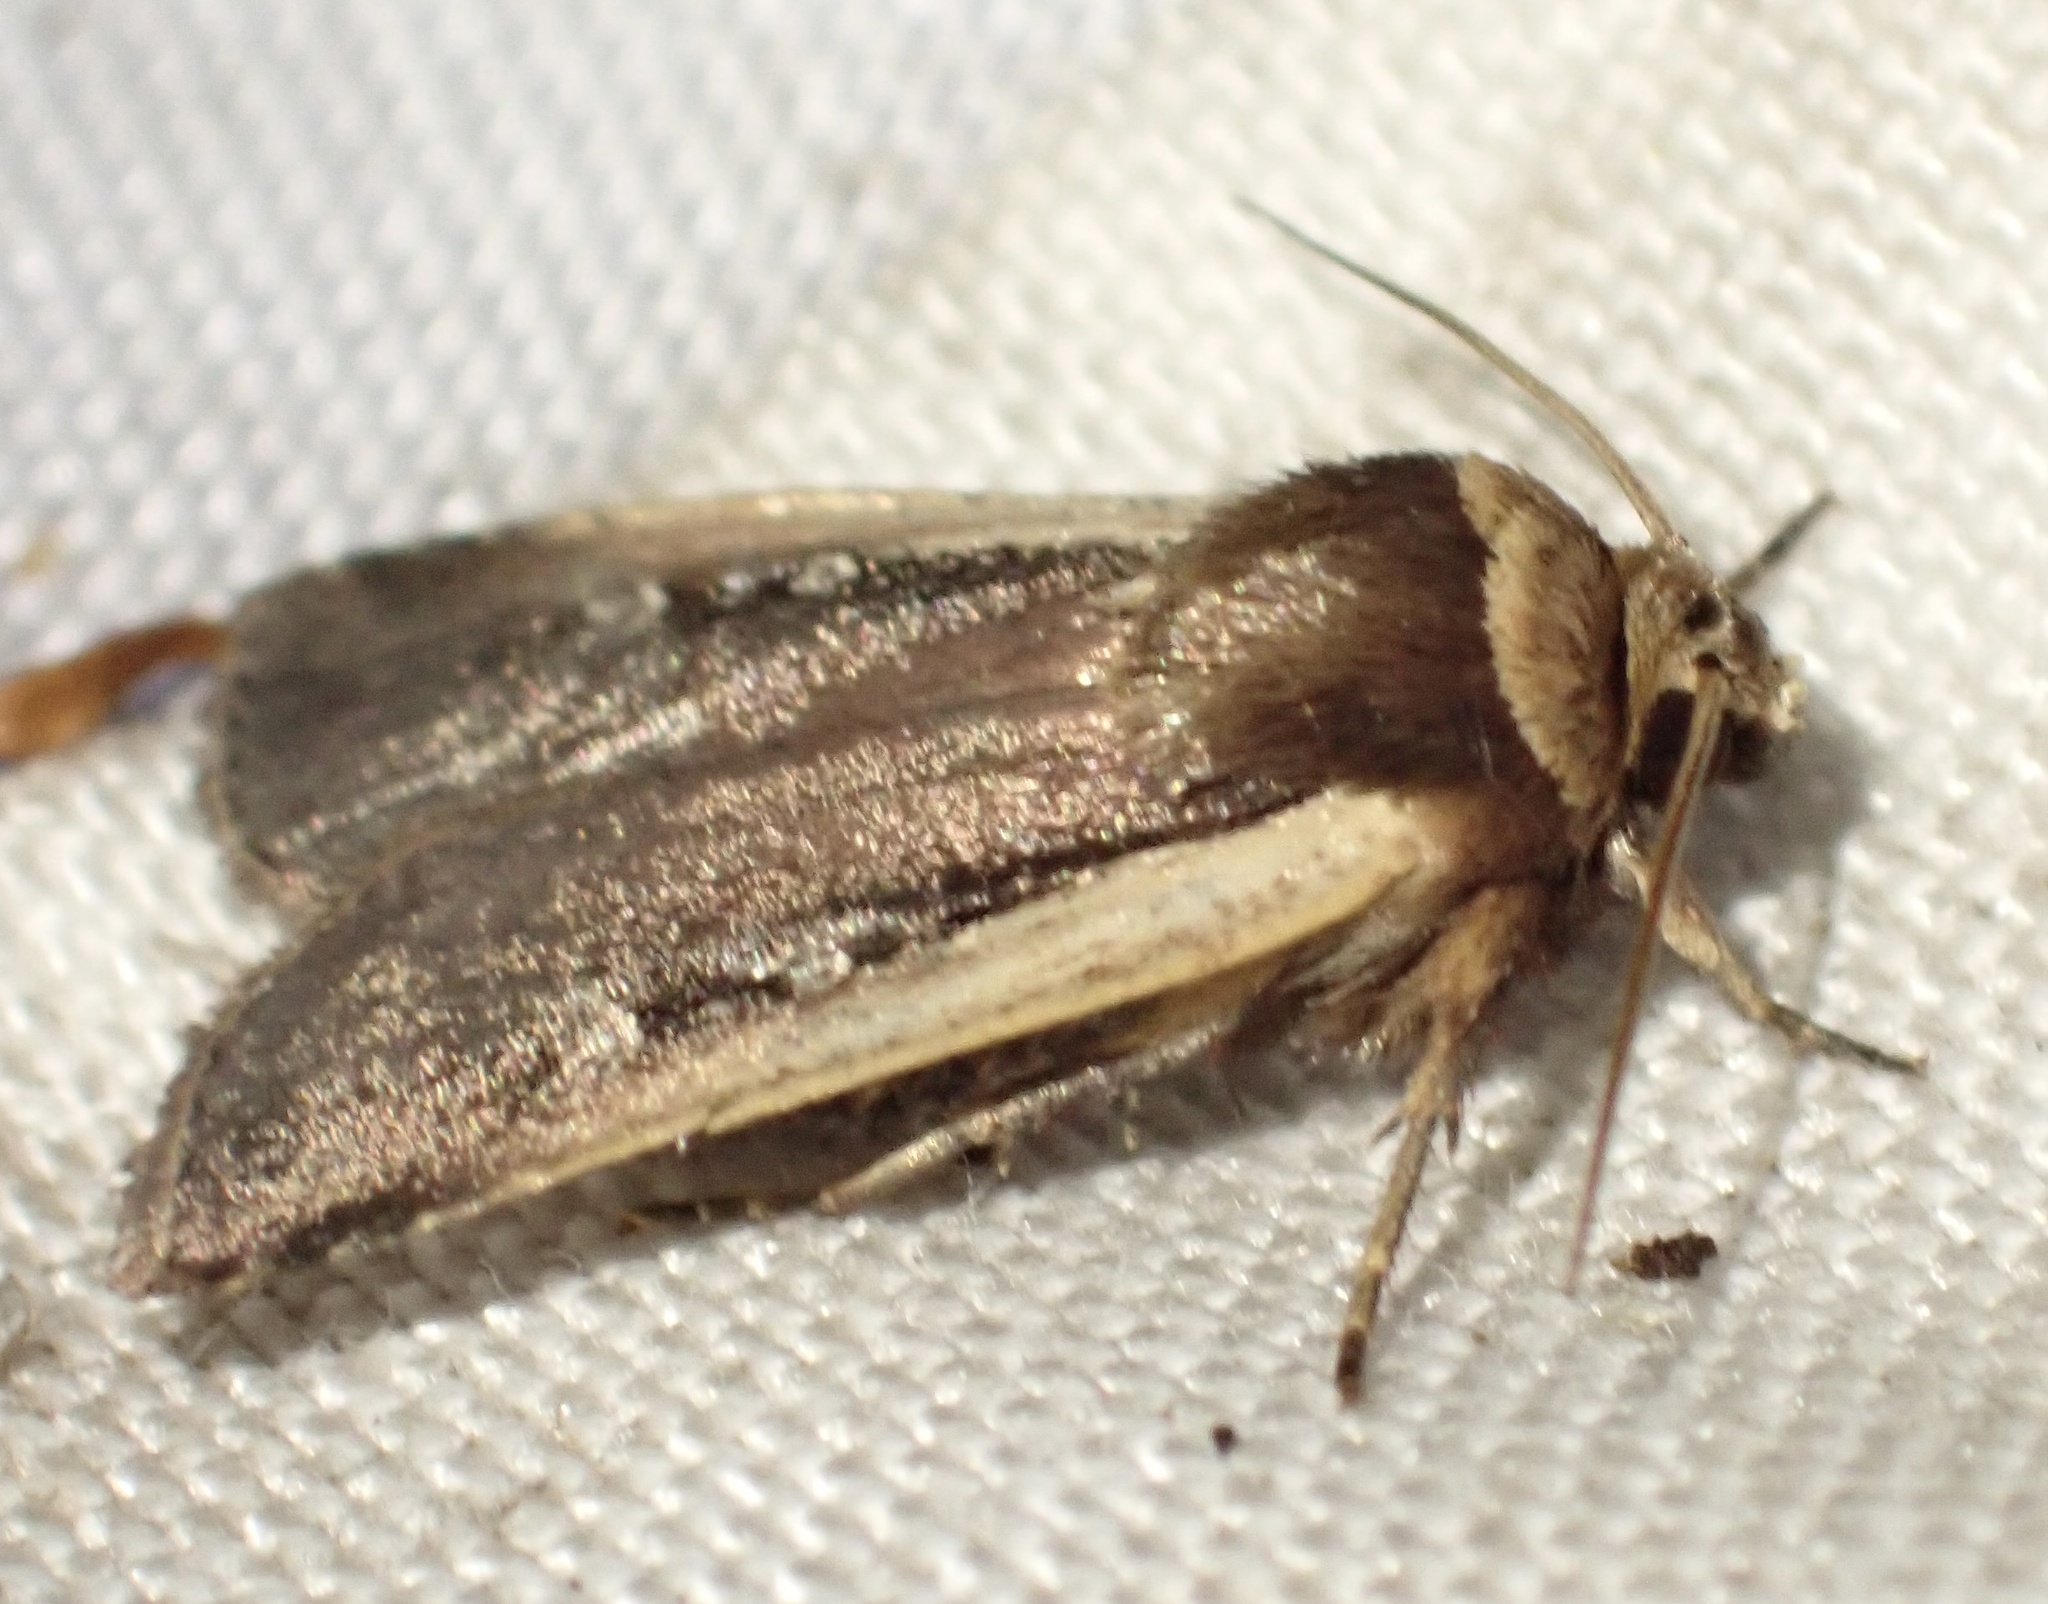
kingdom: Animalia
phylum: Arthropoda
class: Insecta
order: Lepidoptera
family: Noctuidae
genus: Ochropleura
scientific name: Ochropleura plecta
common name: Flame shoulder
